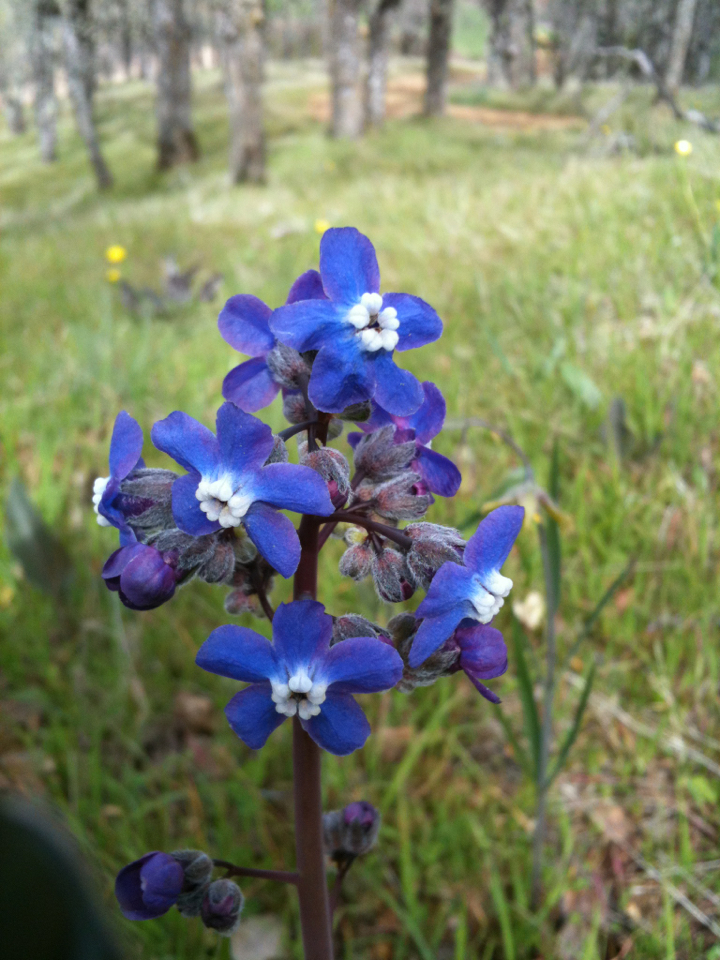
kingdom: Plantae
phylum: Tracheophyta
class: Magnoliopsida
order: Boraginales
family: Boraginaceae
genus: Adelinia
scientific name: Adelinia grande
